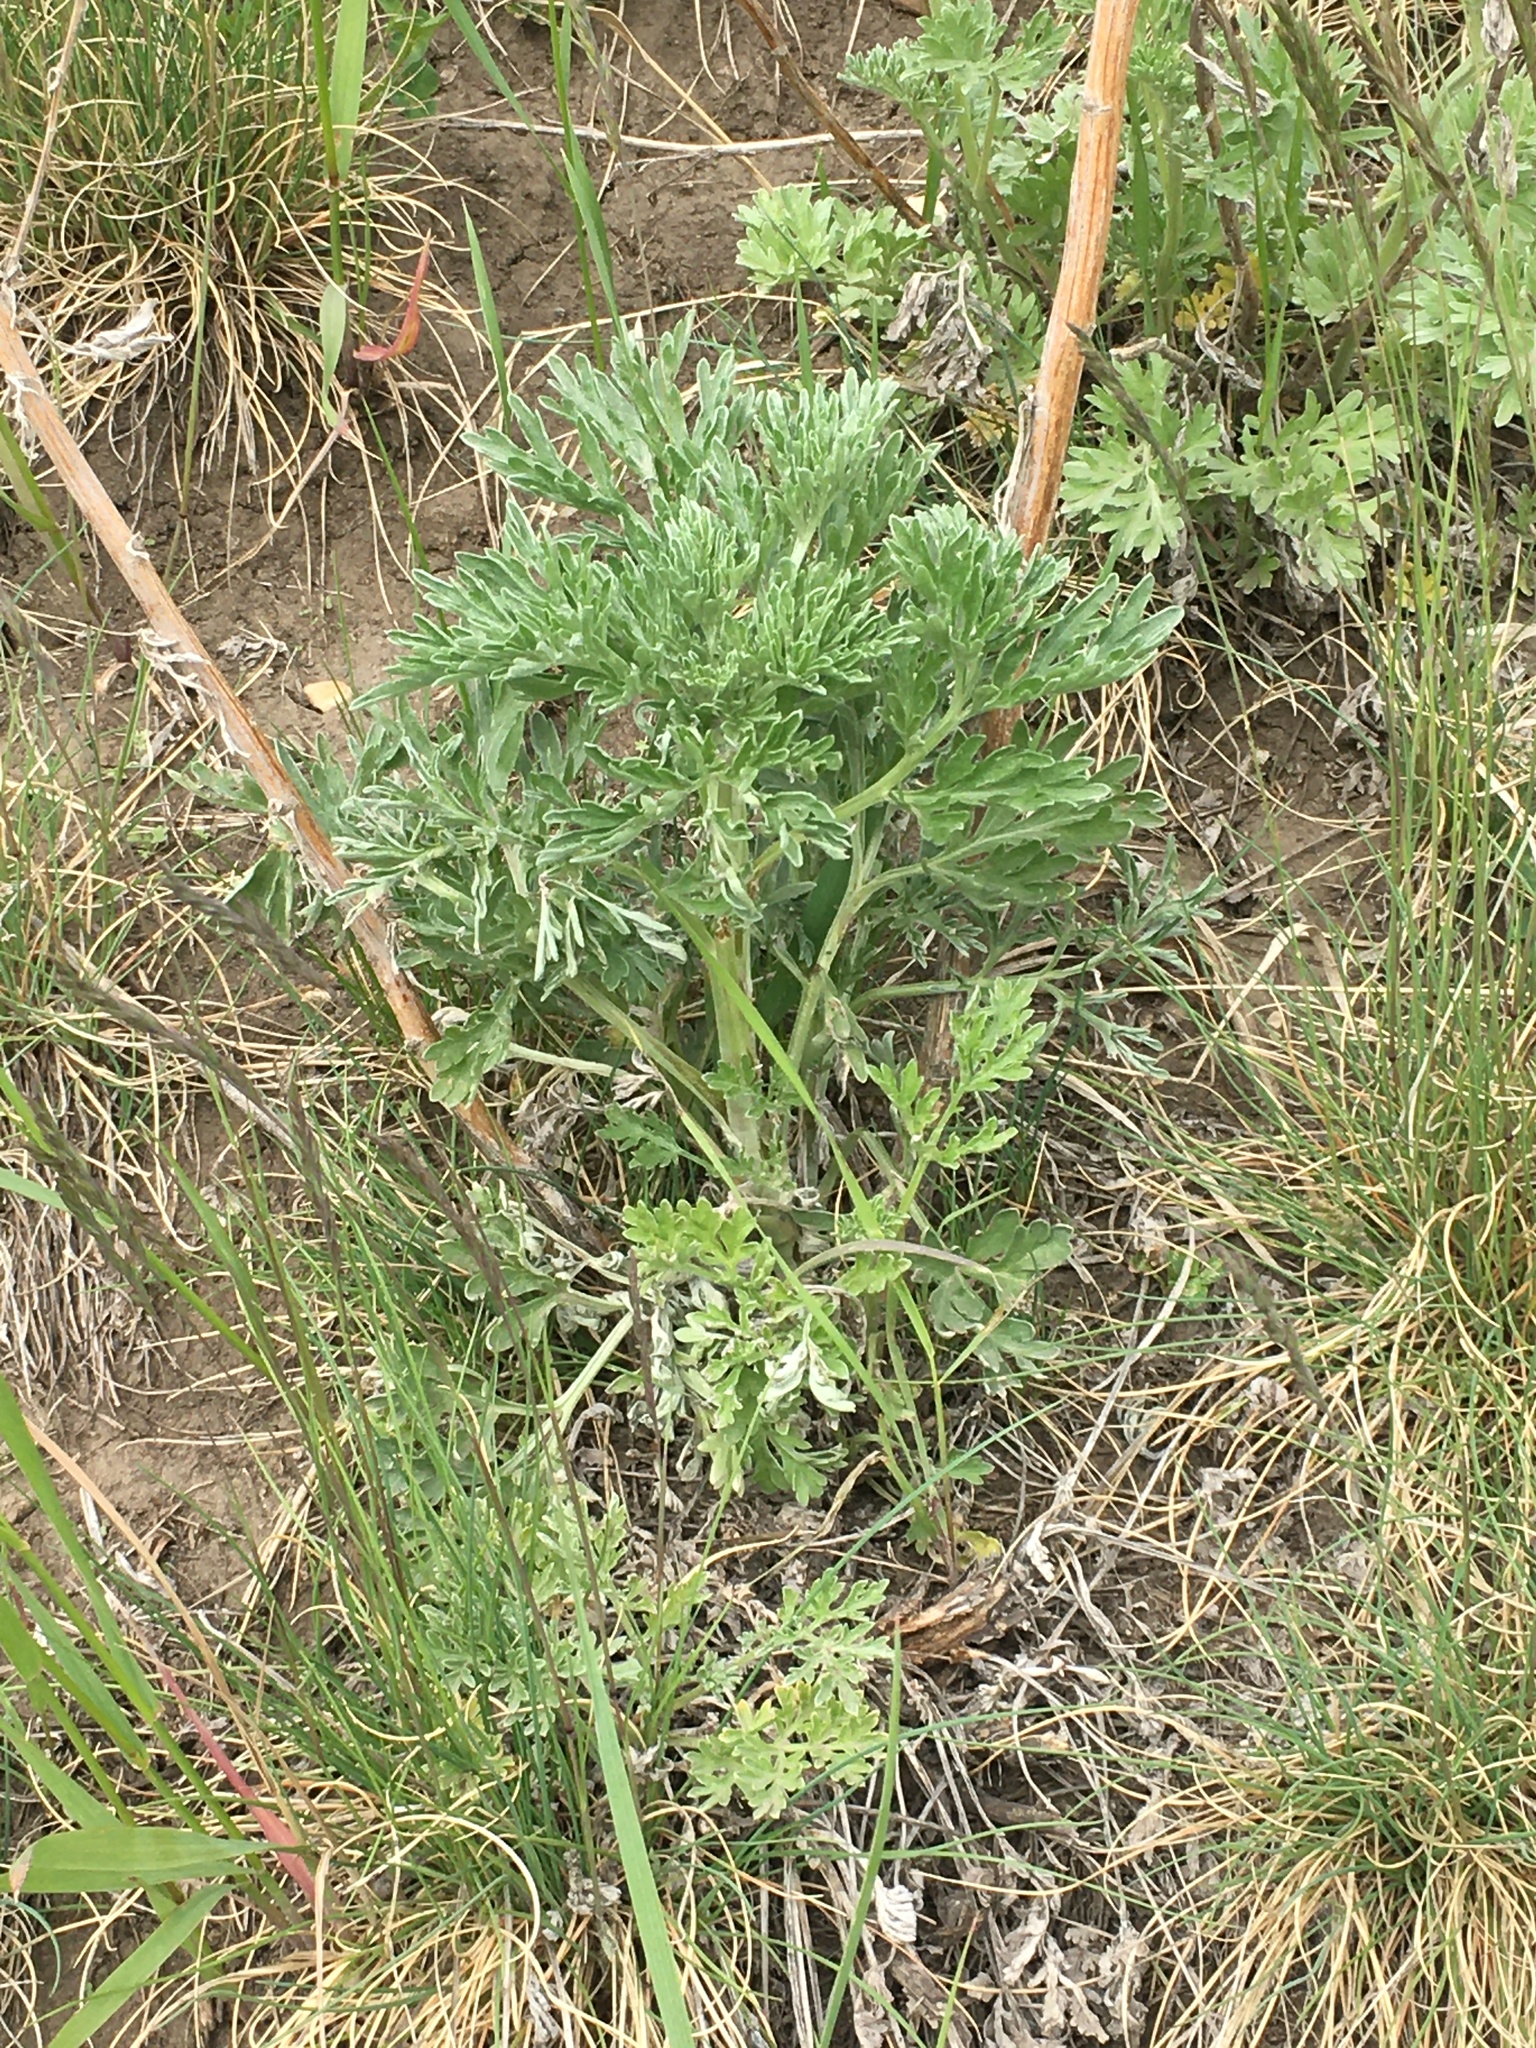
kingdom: Plantae
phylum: Tracheophyta
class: Magnoliopsida
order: Asterales
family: Asteraceae
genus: Artemisia
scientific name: Artemisia absinthium
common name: Wormwood
